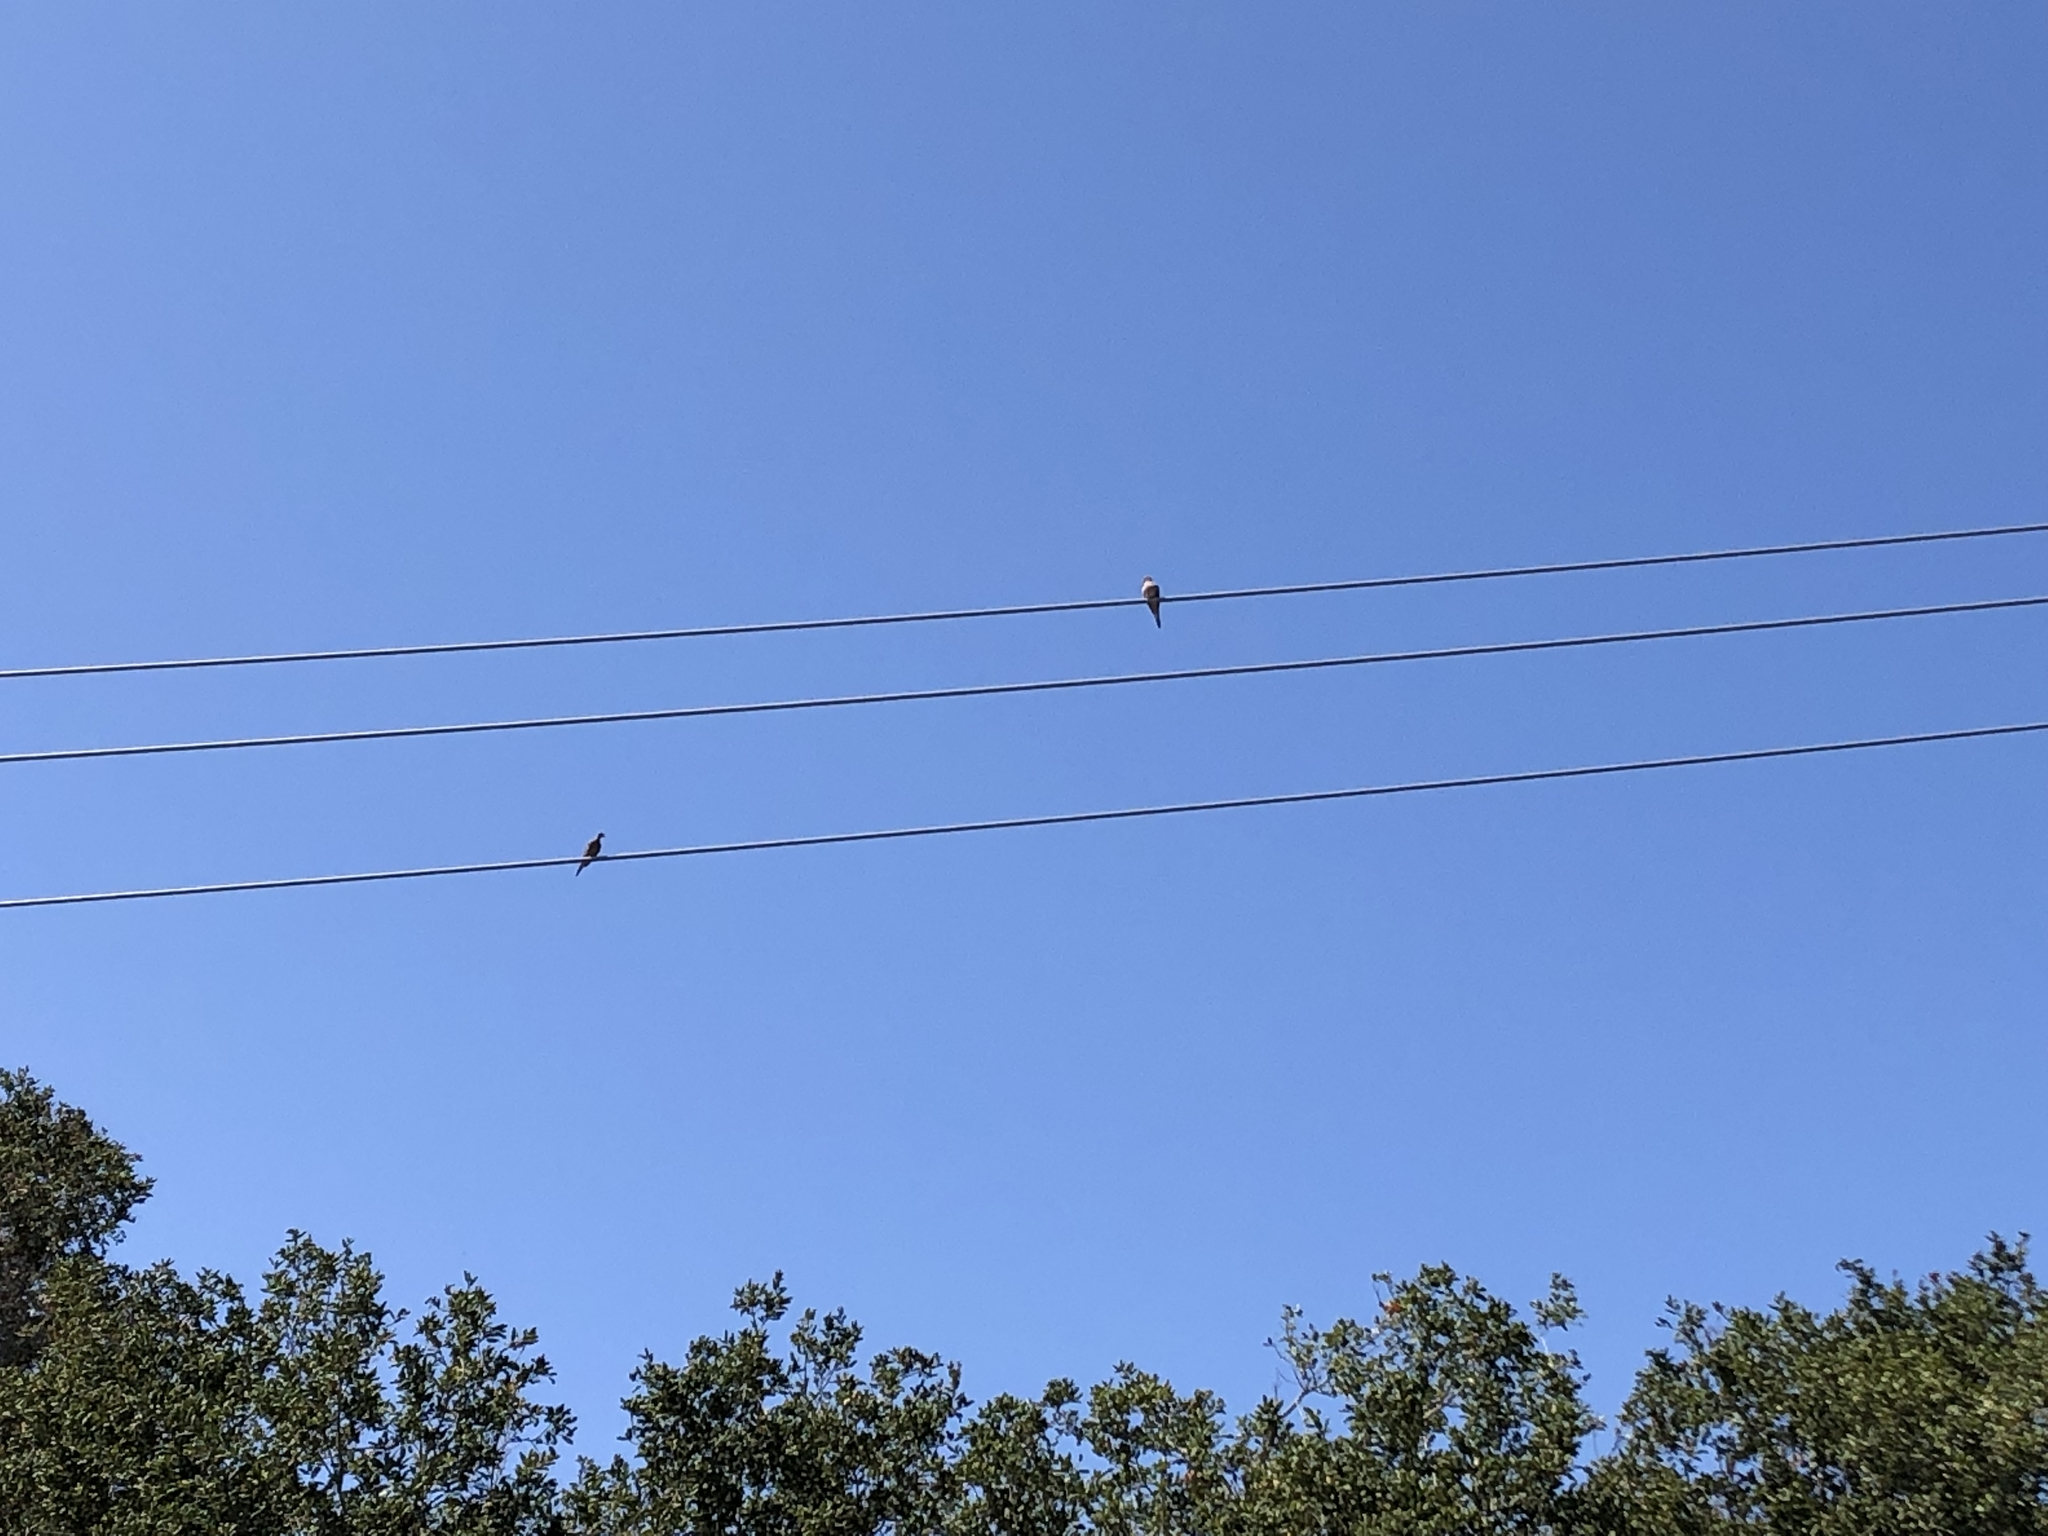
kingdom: Animalia
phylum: Chordata
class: Aves
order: Columbiformes
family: Columbidae
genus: Zenaida
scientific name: Zenaida macroura
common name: Mourning dove
